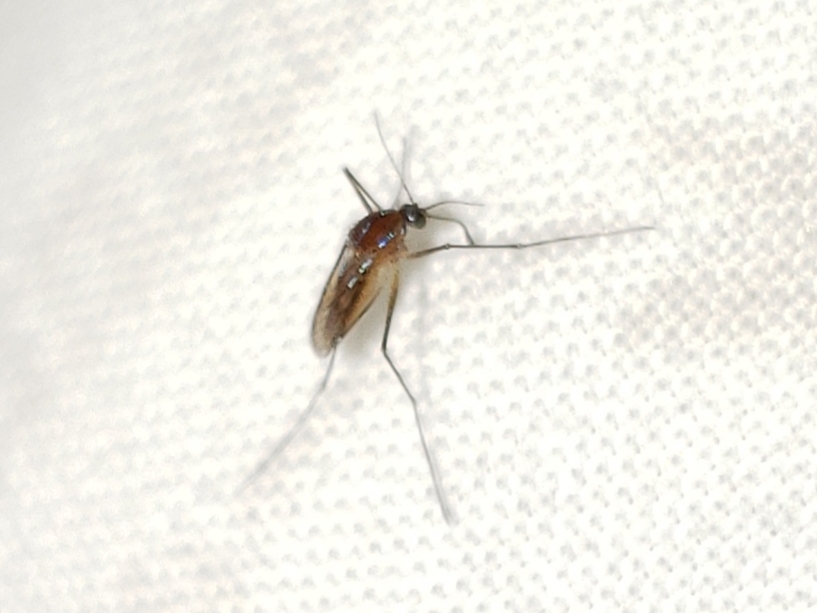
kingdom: Animalia
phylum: Arthropoda
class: Insecta
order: Diptera
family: Culicidae
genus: Uranotaenia
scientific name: Uranotaenia sapphirina
